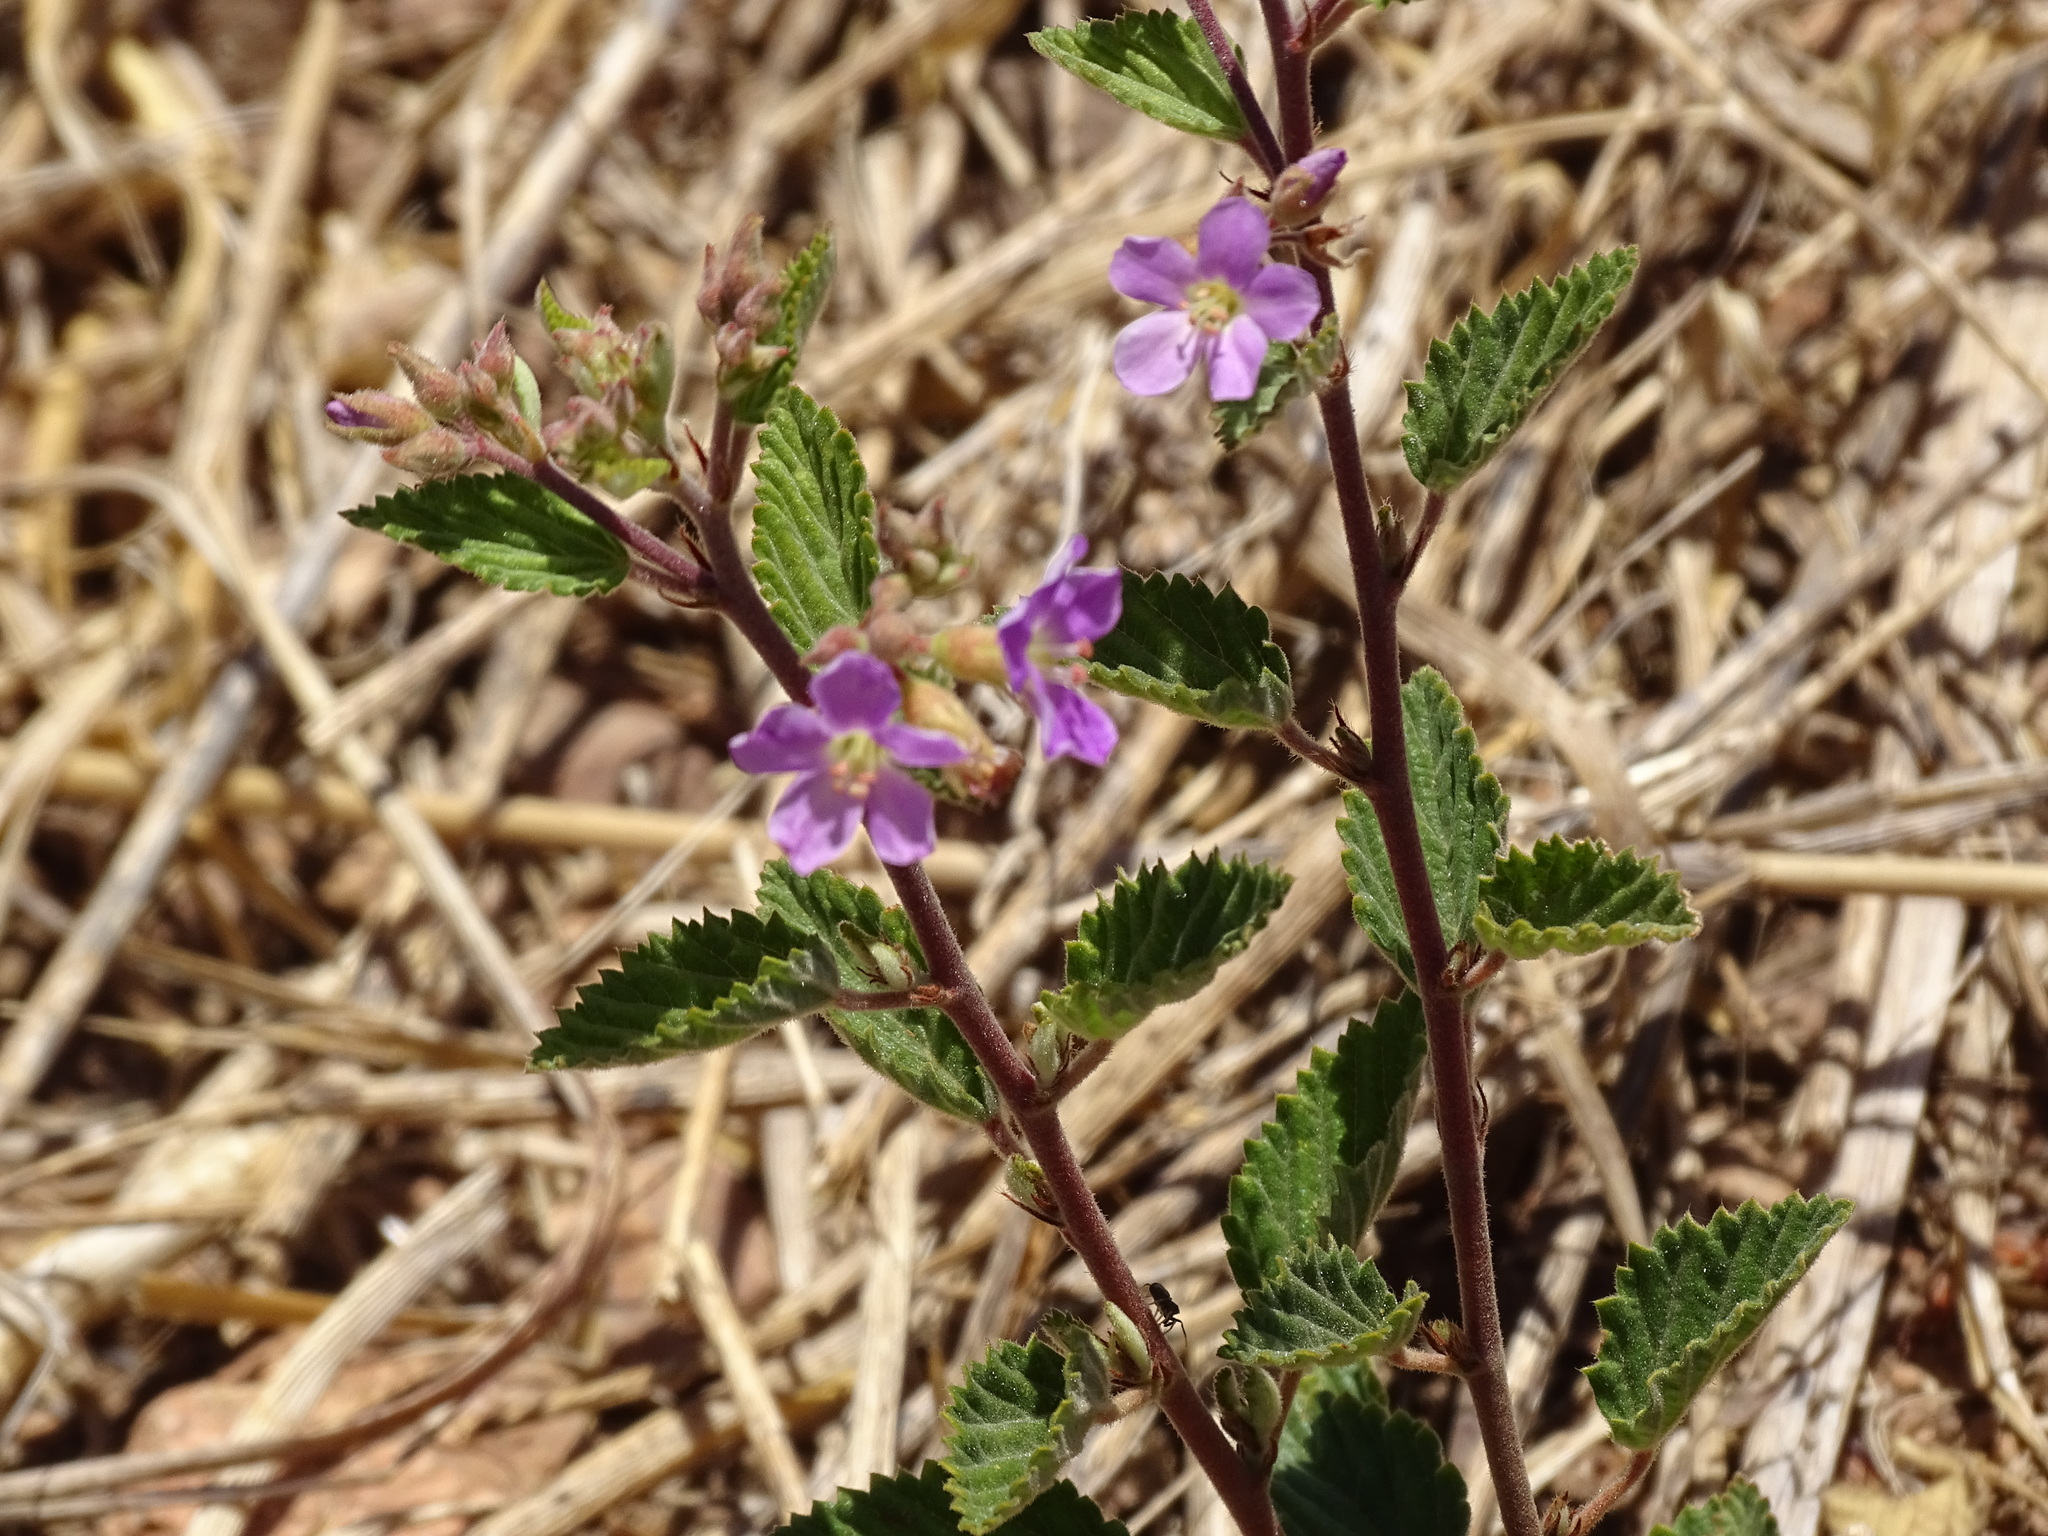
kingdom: Plantae
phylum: Tracheophyta
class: Magnoliopsida
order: Malvales
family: Malvaceae
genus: Melochia
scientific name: Melochia tomentosa
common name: Black torch
